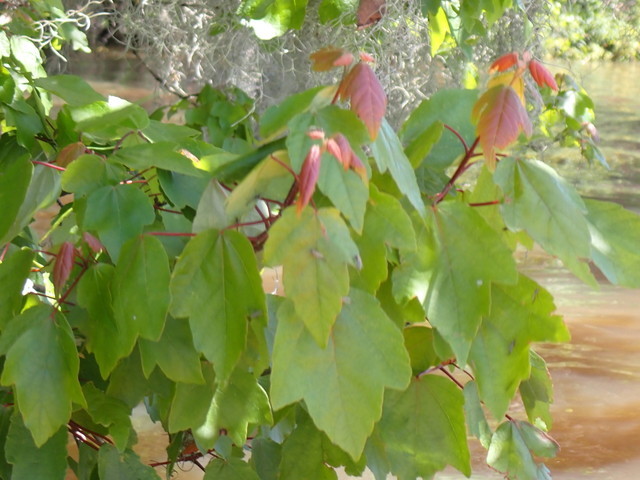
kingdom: Plantae
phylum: Tracheophyta
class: Magnoliopsida
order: Sapindales
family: Sapindaceae
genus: Acer
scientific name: Acer rubrum
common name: Red maple
